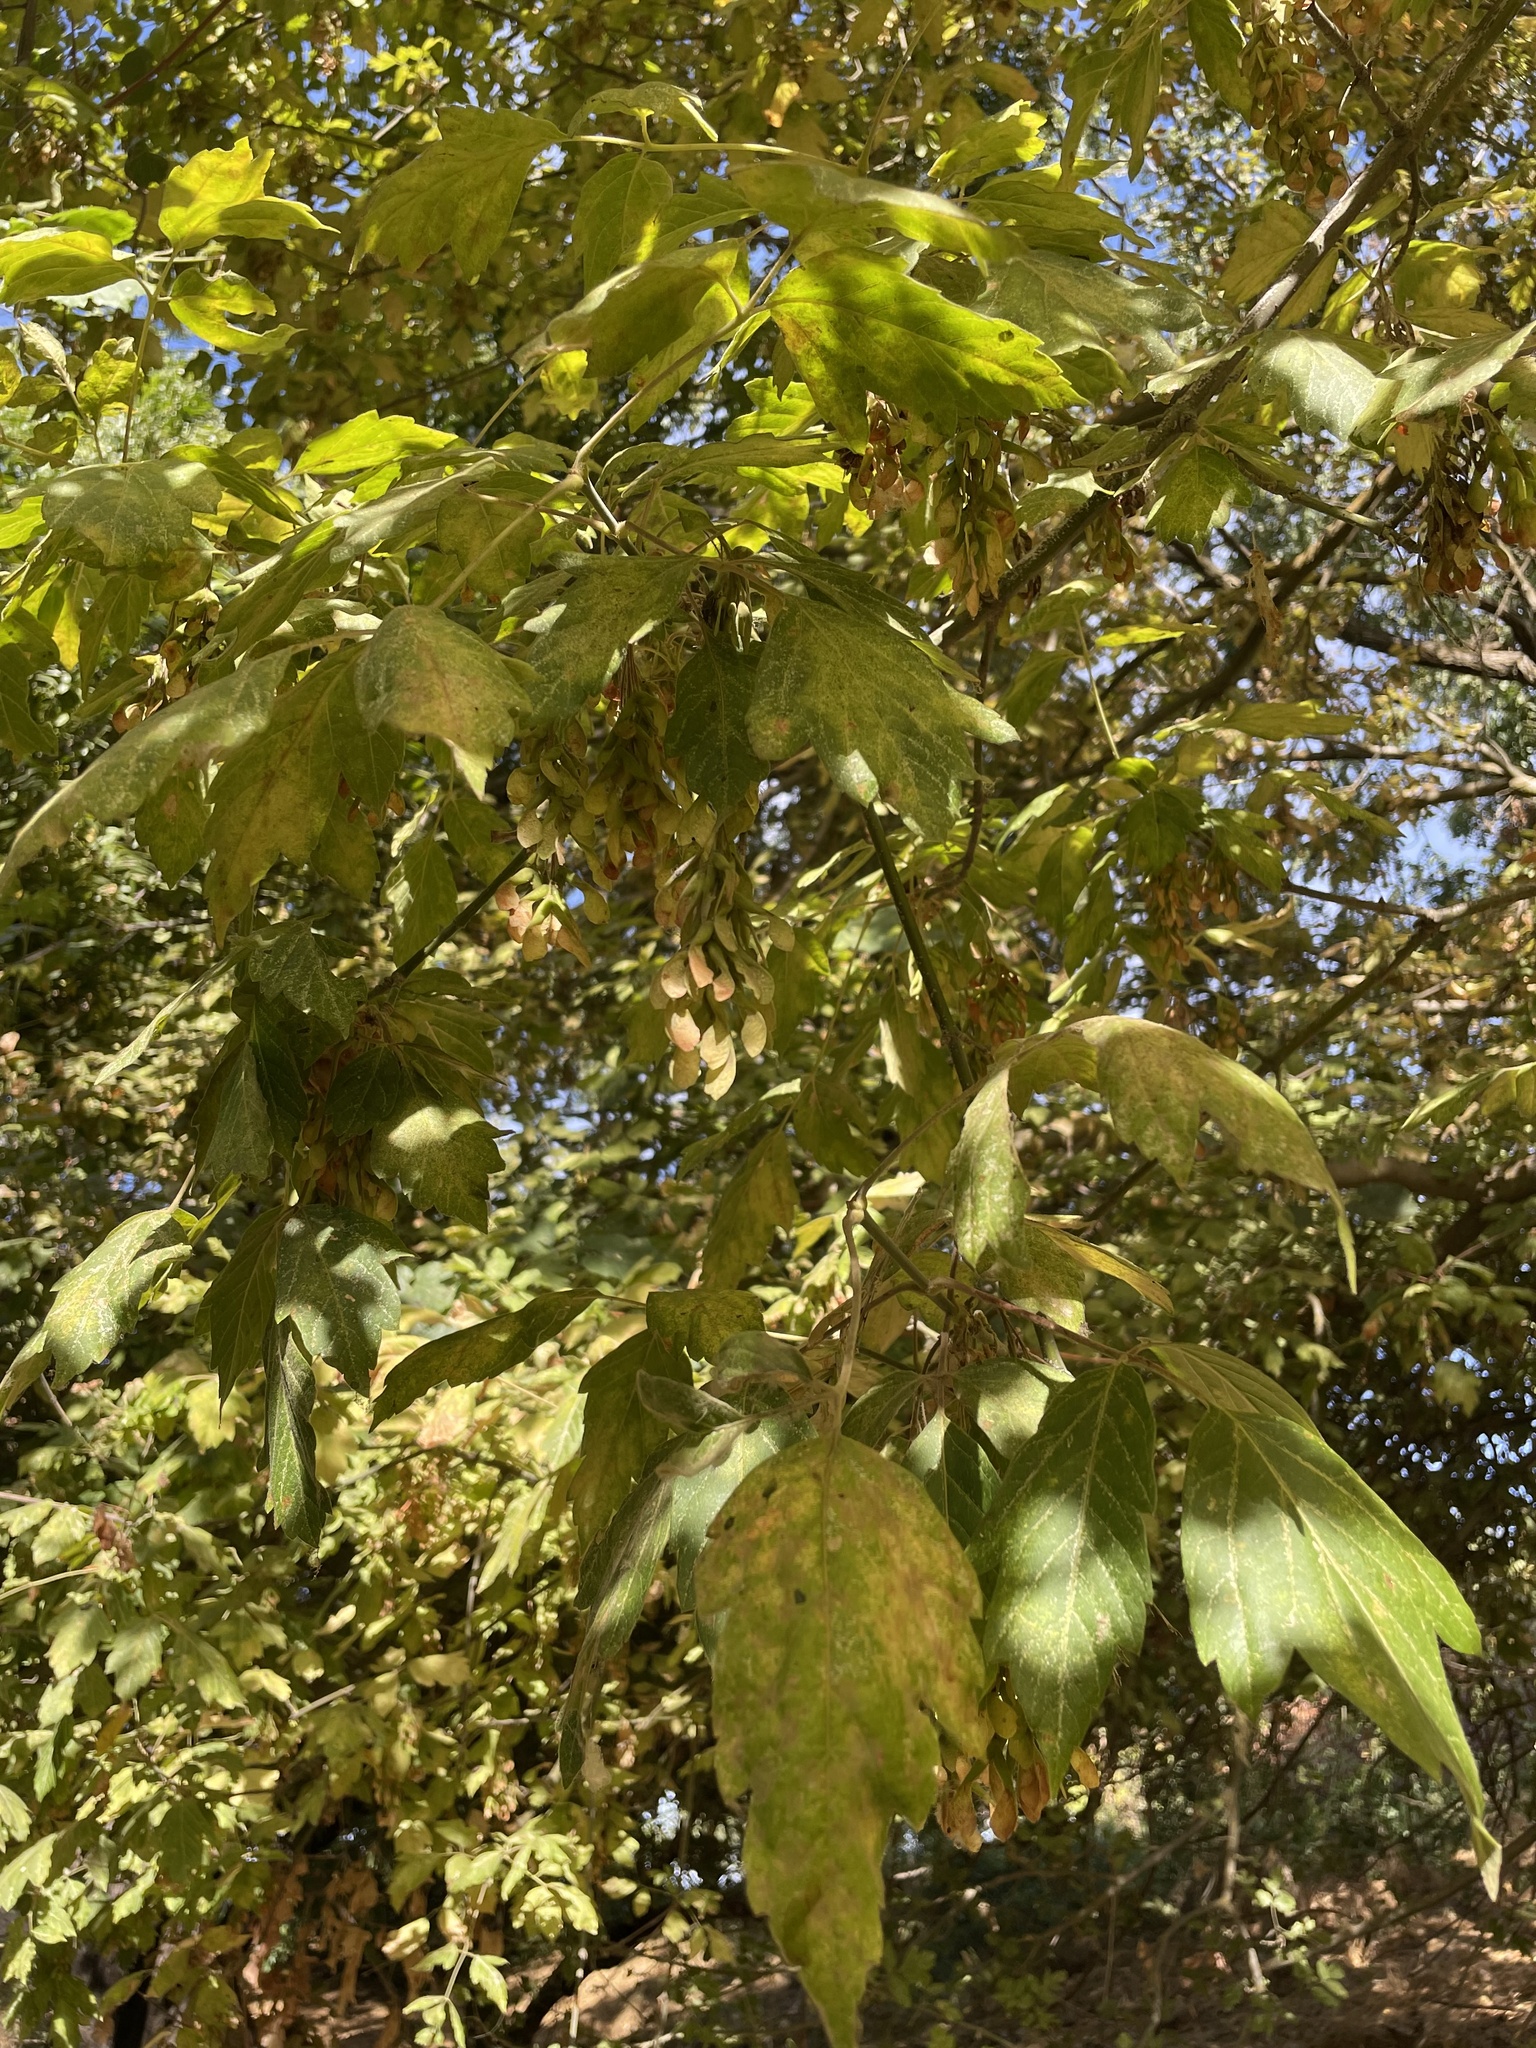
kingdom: Plantae
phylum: Tracheophyta
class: Magnoliopsida
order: Sapindales
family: Sapindaceae
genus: Acer
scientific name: Acer negundo
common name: Ashleaf maple
